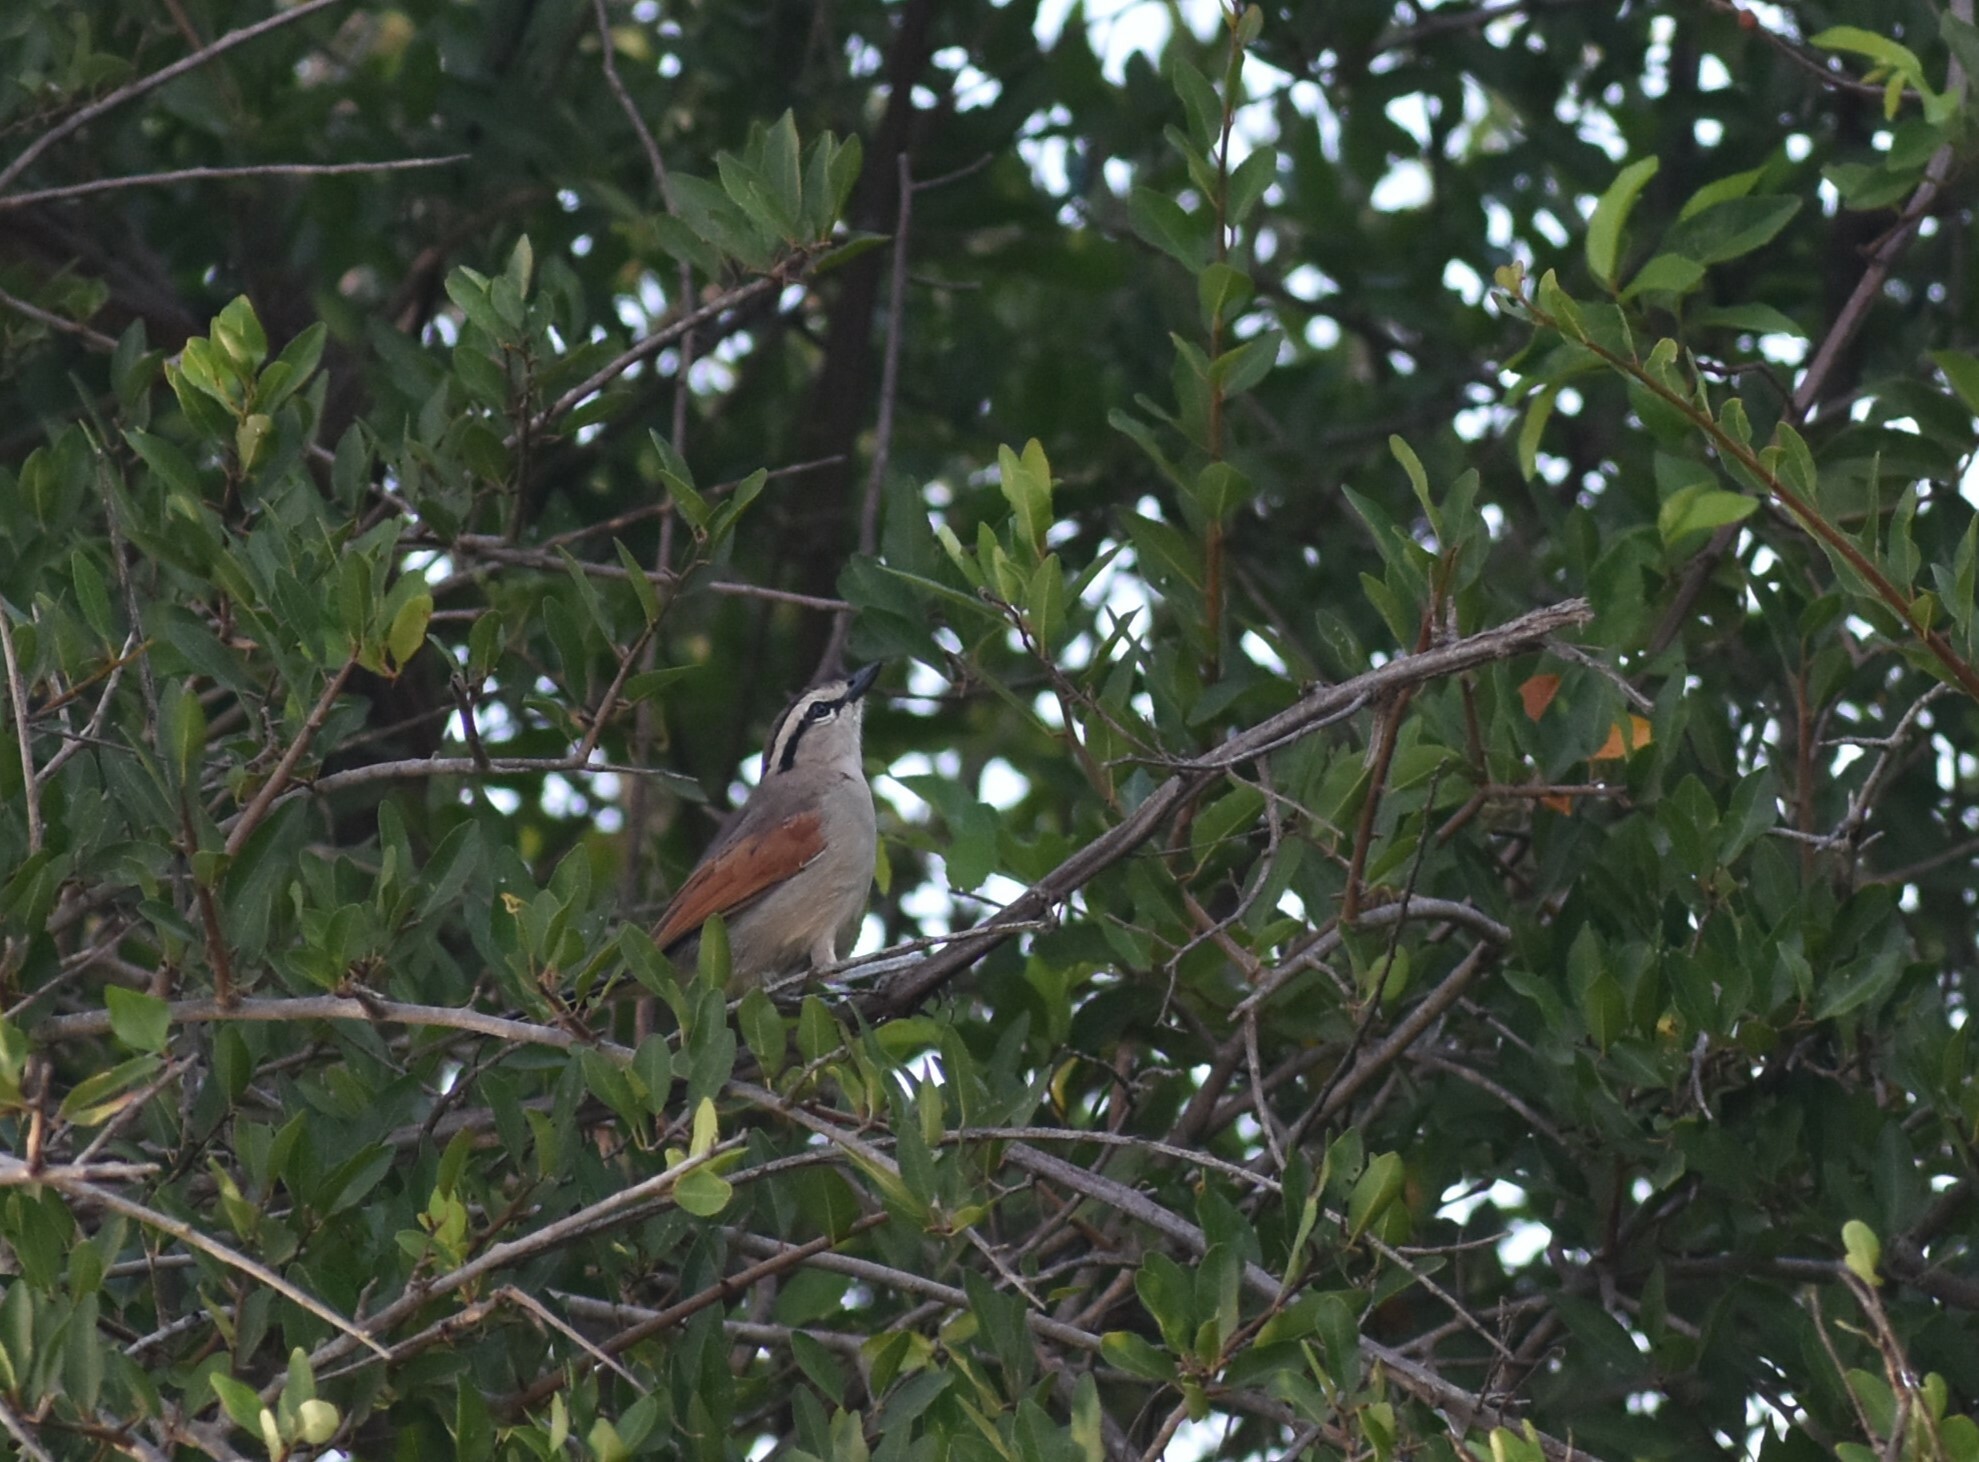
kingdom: Animalia
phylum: Chordata
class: Aves
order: Passeriformes
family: Malaconotidae
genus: Tchagra
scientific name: Tchagra australis
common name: Brown-crowned tchagra
